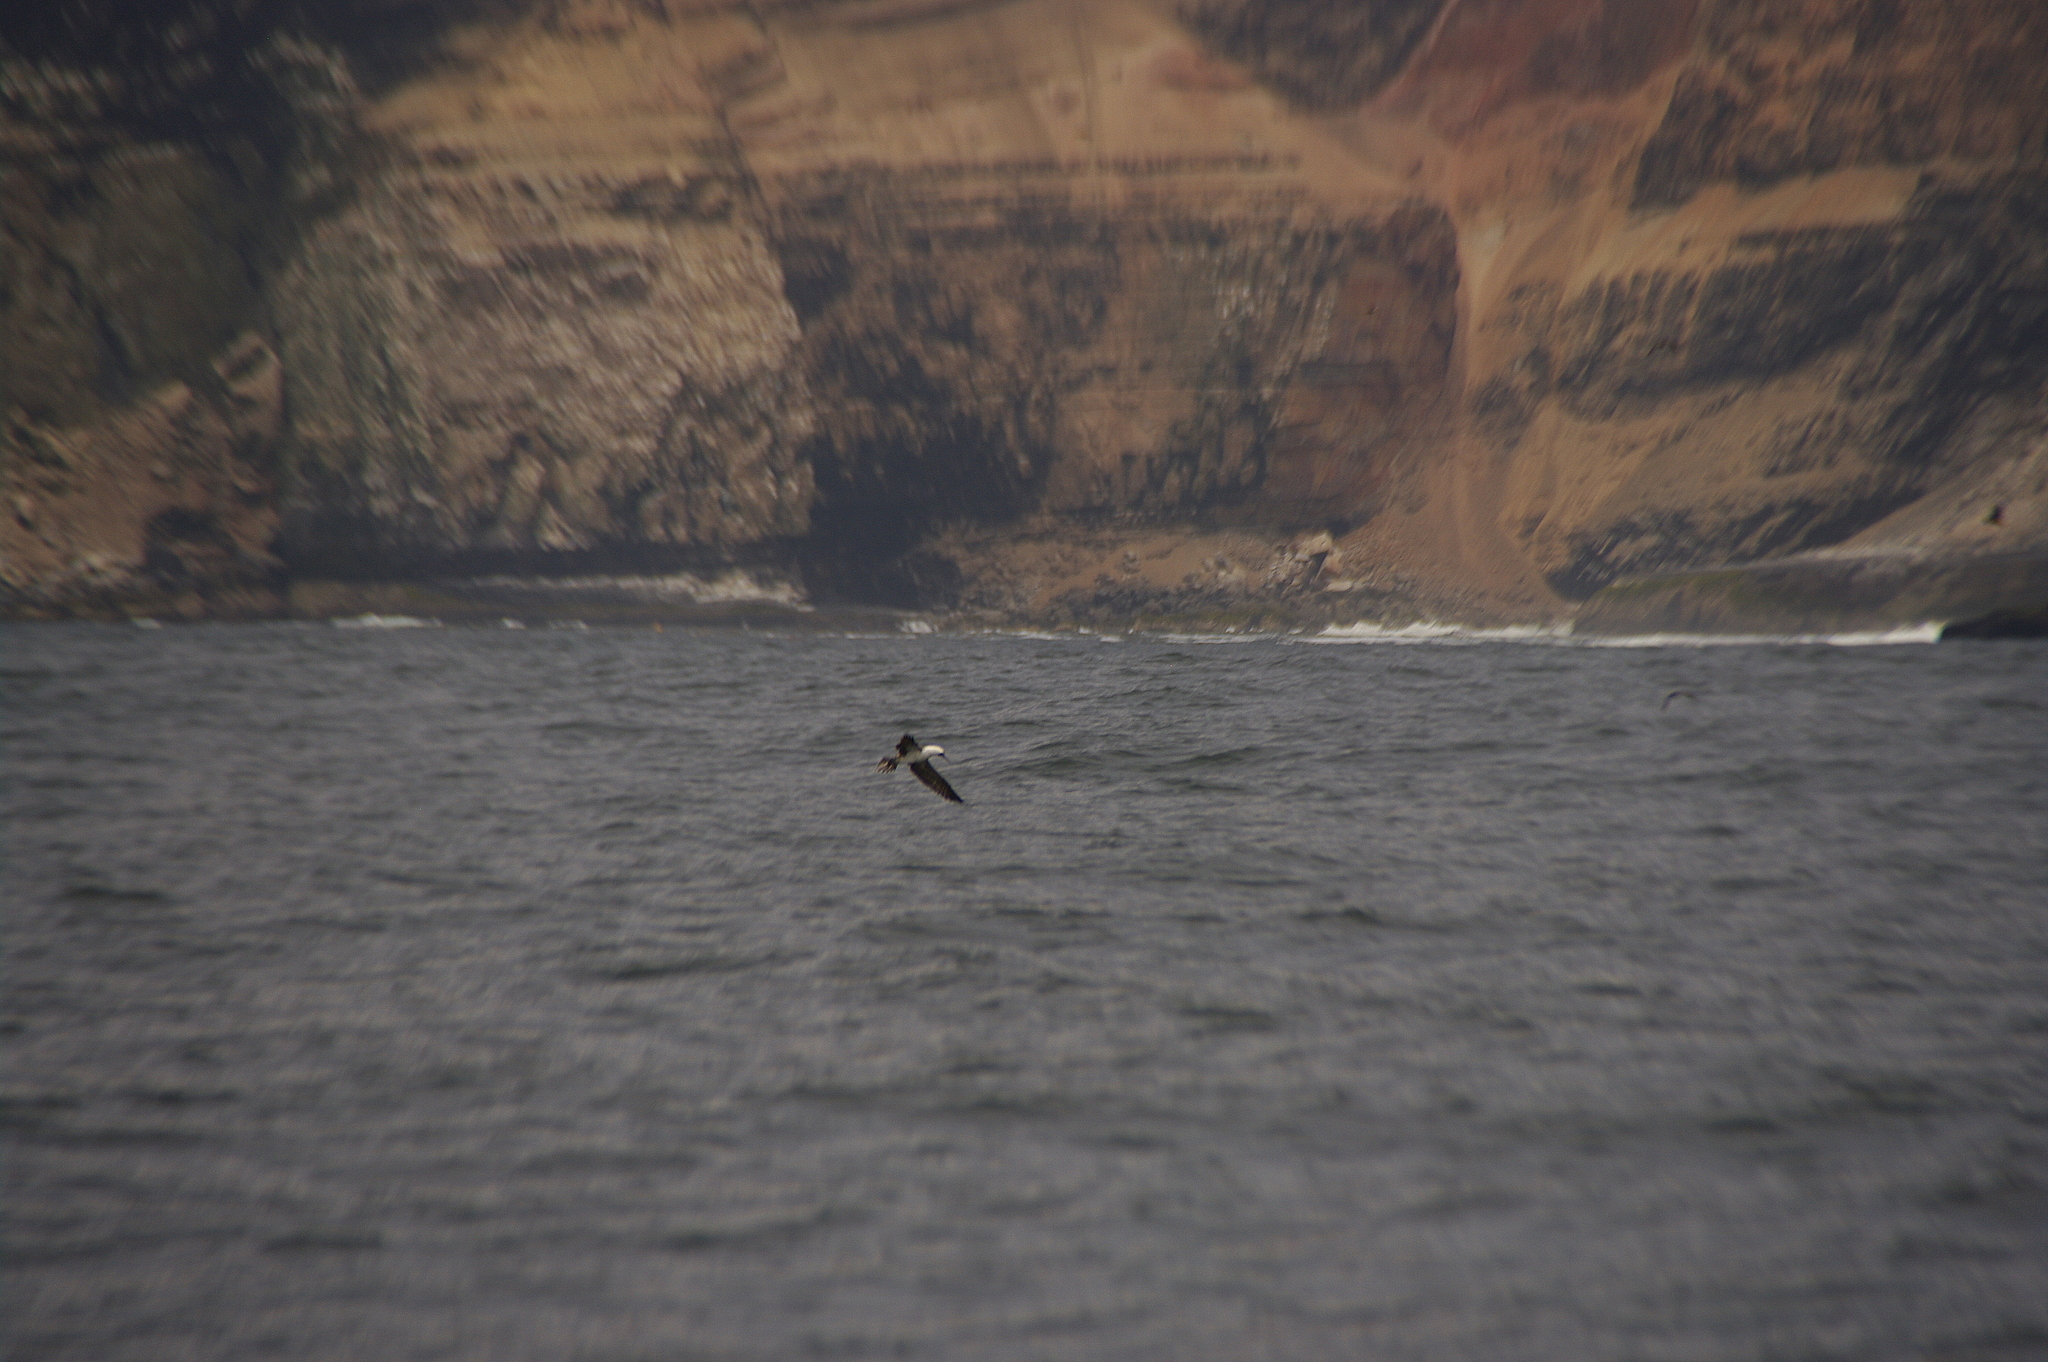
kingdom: Animalia
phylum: Chordata
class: Aves
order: Suliformes
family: Sulidae
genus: Sula
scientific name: Sula variegata
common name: Peruvian booby
